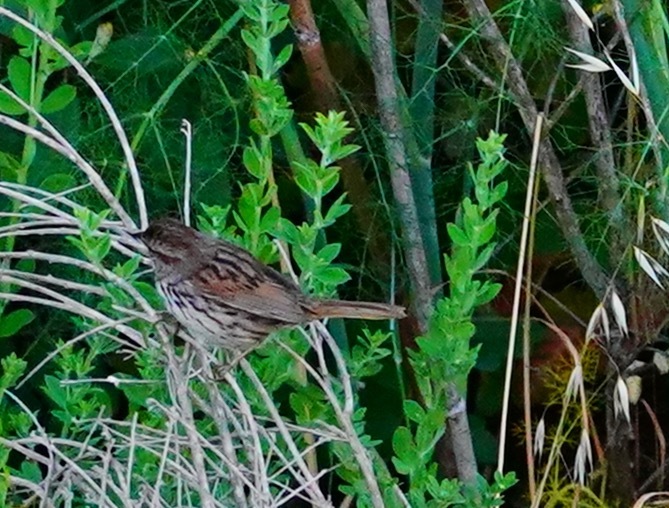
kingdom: Animalia
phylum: Chordata
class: Aves
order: Passeriformes
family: Passerellidae
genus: Melospiza
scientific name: Melospiza melodia
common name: Song sparrow
